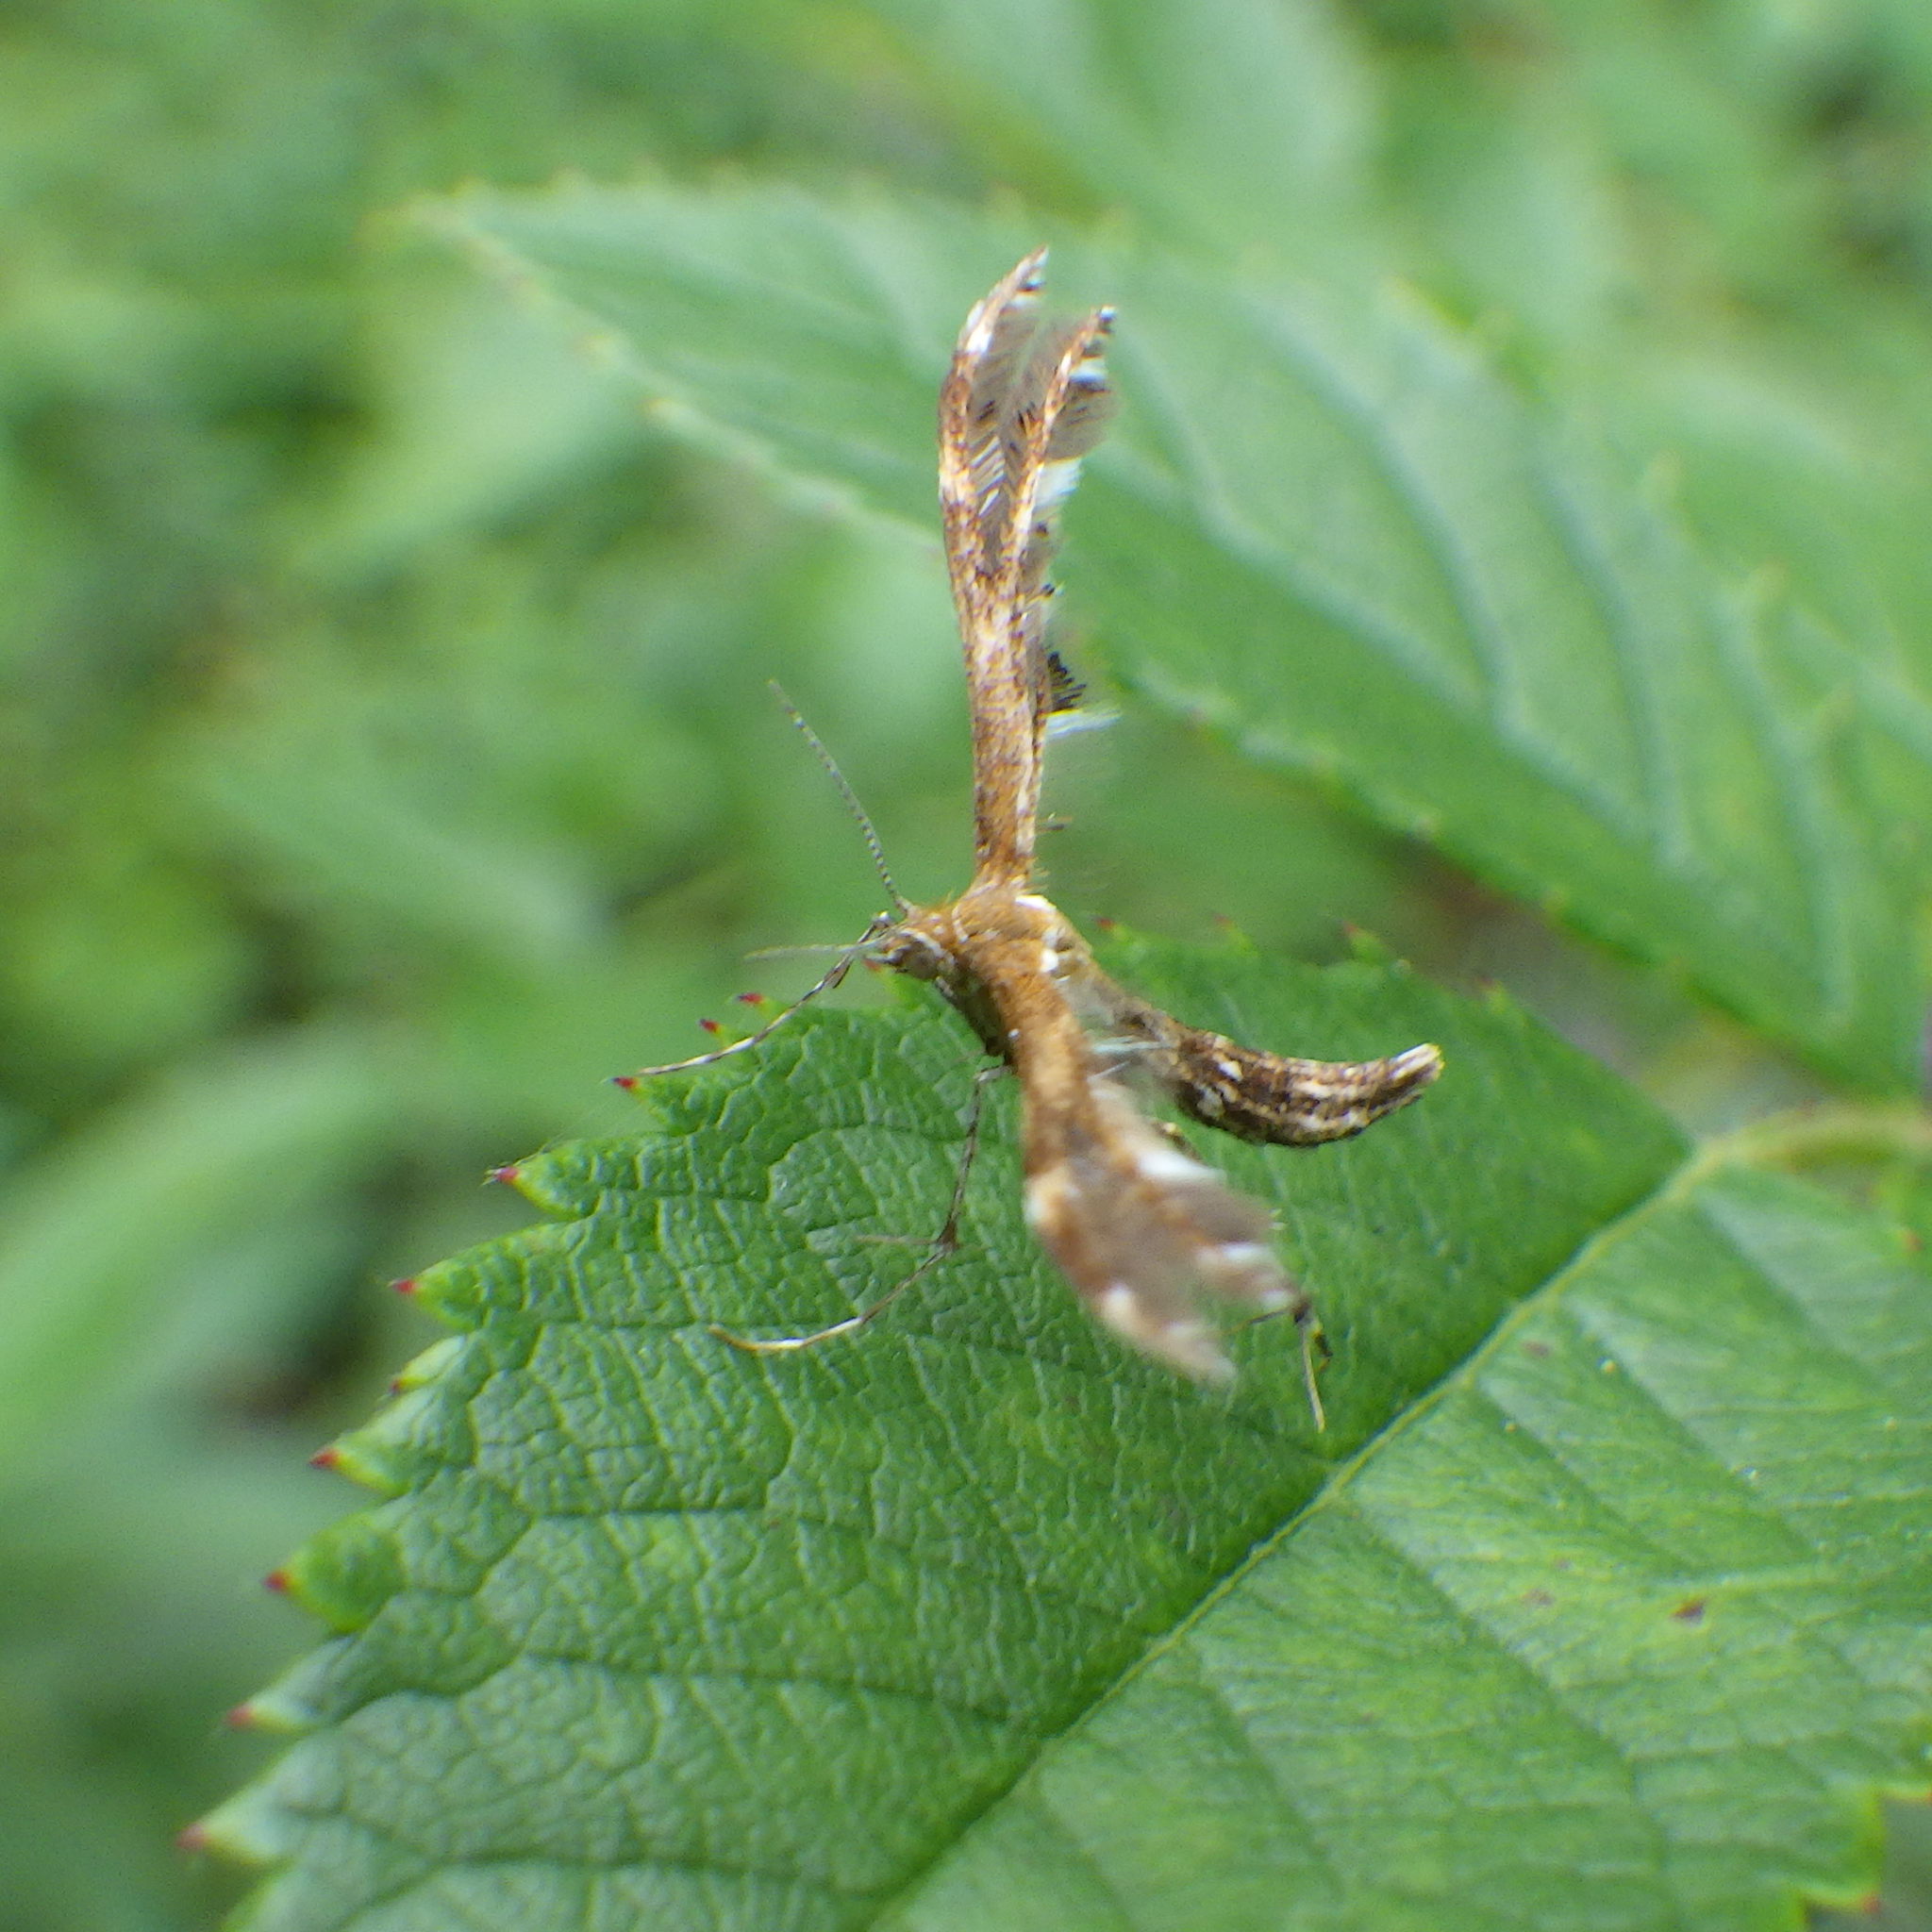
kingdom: Animalia
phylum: Arthropoda
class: Insecta
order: Lepidoptera
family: Pterophoridae
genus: Dejongia
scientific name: Dejongia lobidactylus
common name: Lobed plume moth
